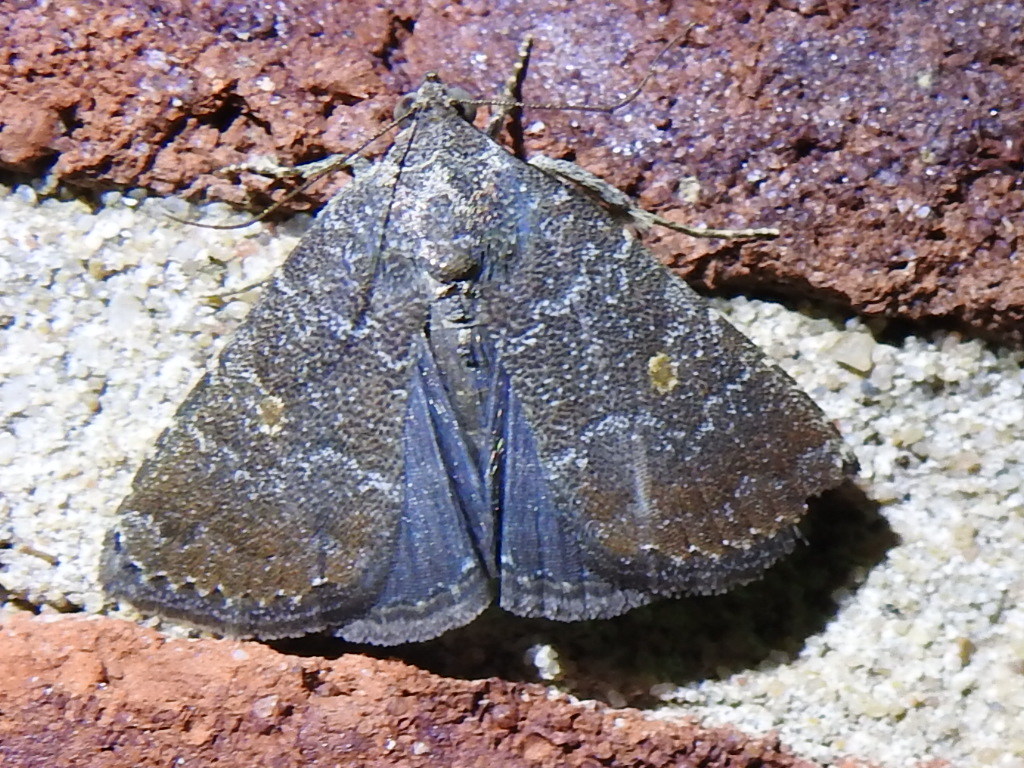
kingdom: Animalia
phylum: Arthropoda
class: Insecta
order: Lepidoptera
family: Noctuidae
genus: Amyna
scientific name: Amyna stricta
